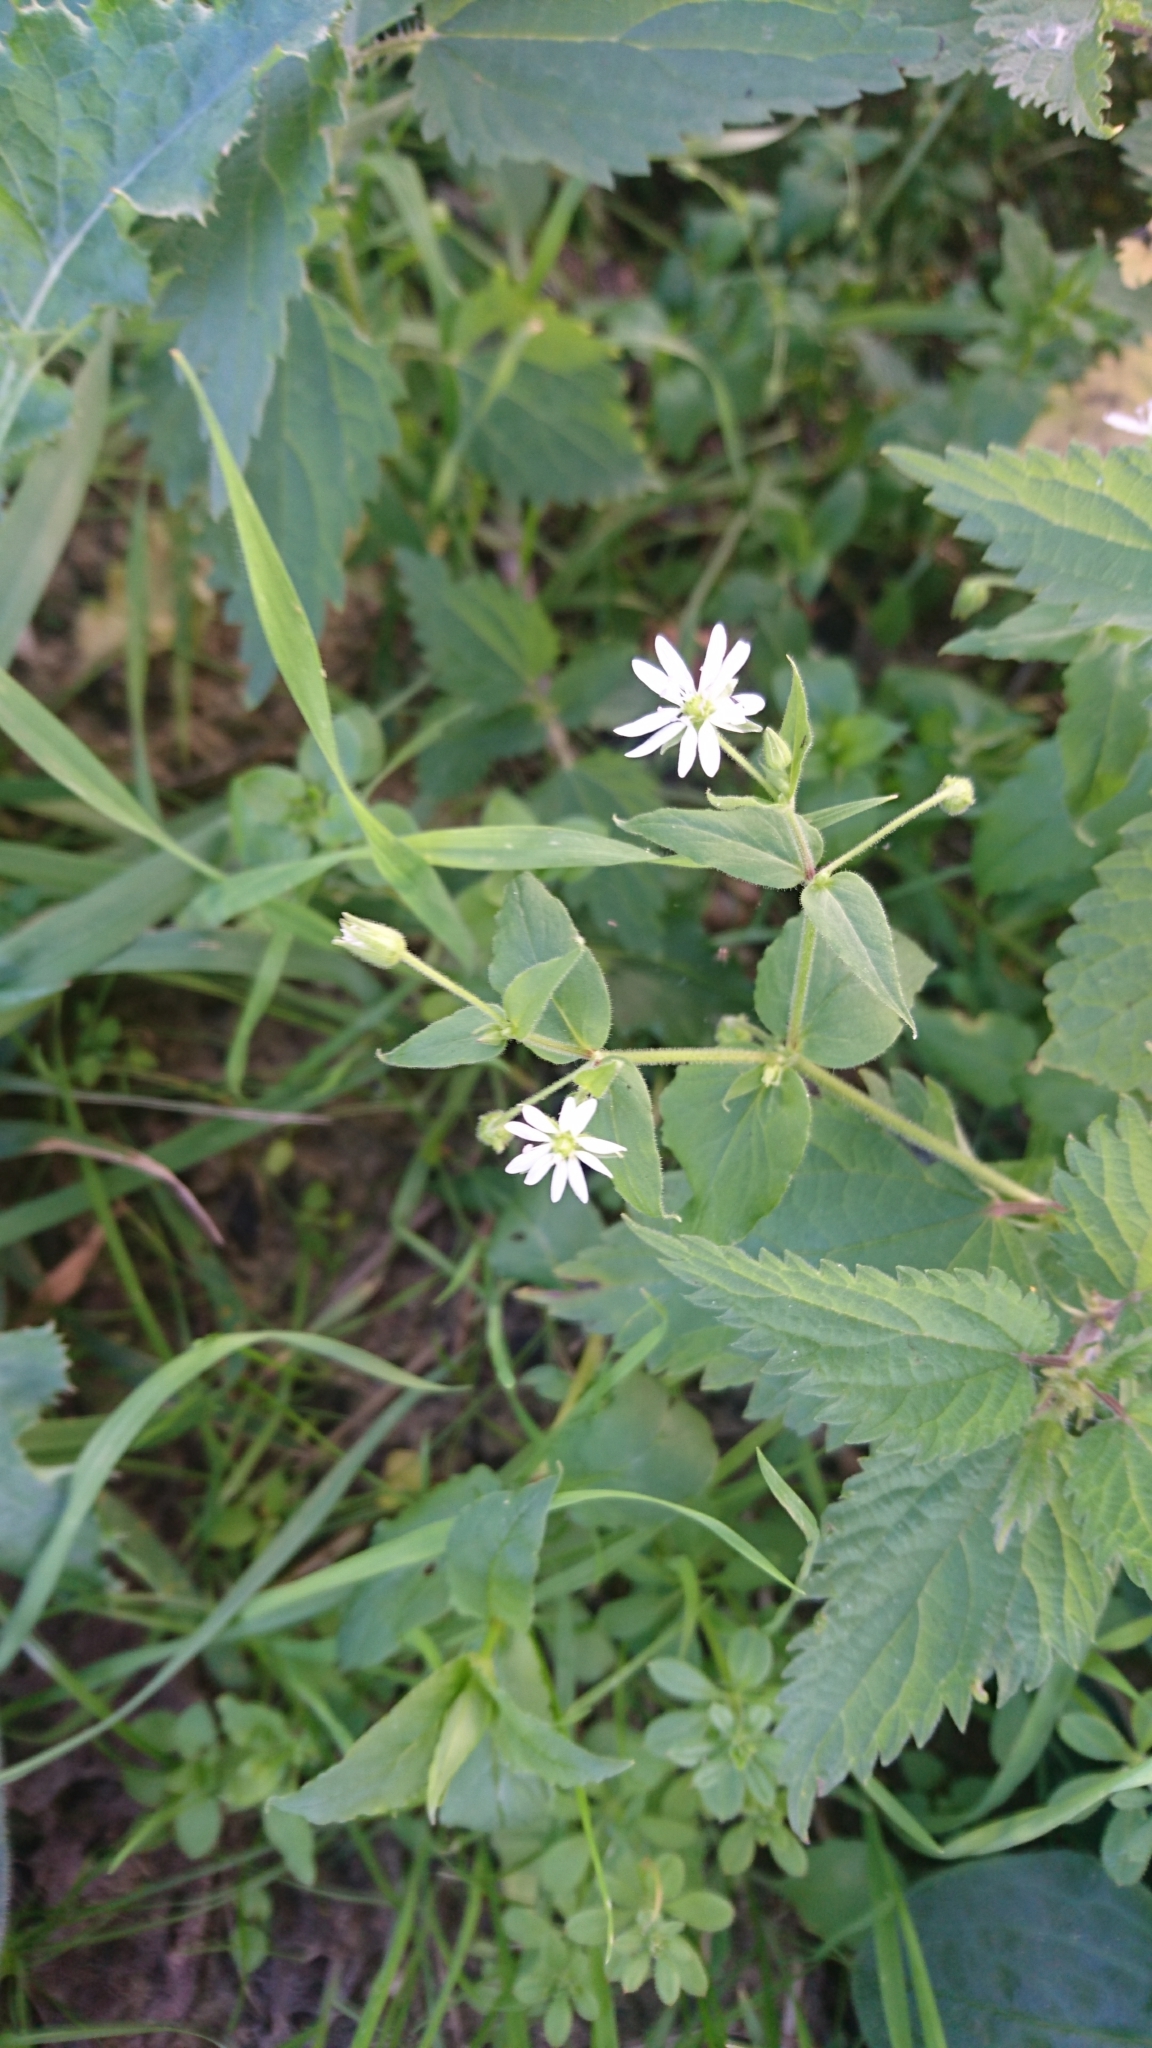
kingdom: Plantae
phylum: Tracheophyta
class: Magnoliopsida
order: Caryophyllales
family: Caryophyllaceae
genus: Stellaria
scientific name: Stellaria aquatica
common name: Water chickweed
